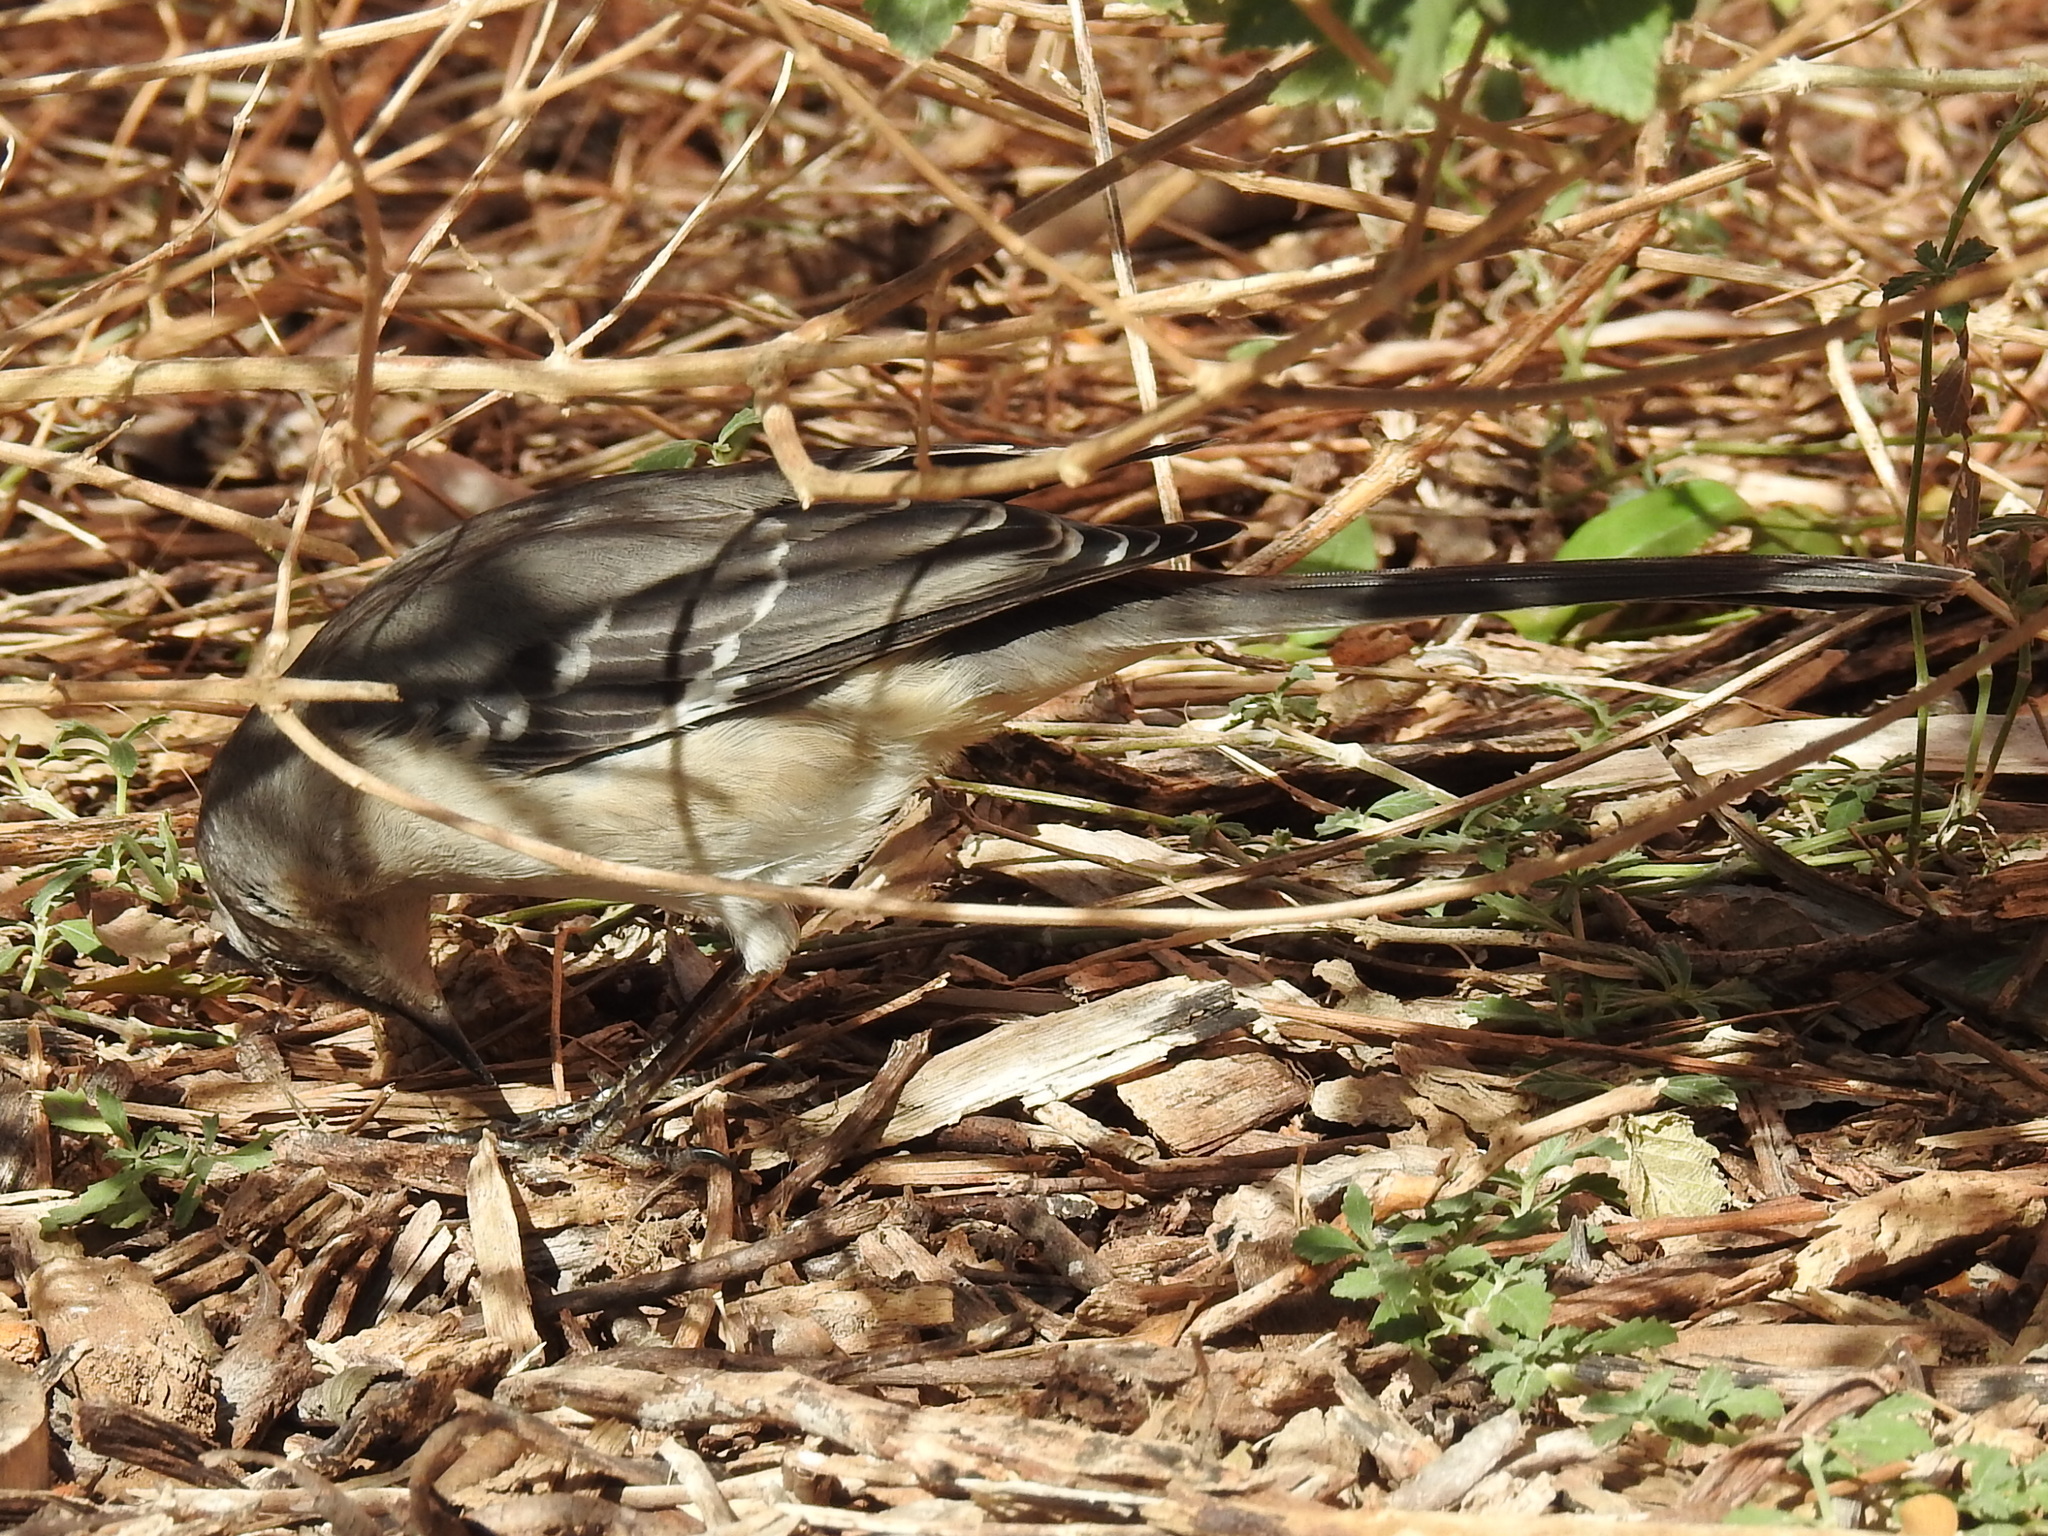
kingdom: Animalia
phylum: Chordata
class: Aves
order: Passeriformes
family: Mimidae
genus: Mimus
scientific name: Mimus polyglottos
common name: Northern mockingbird
